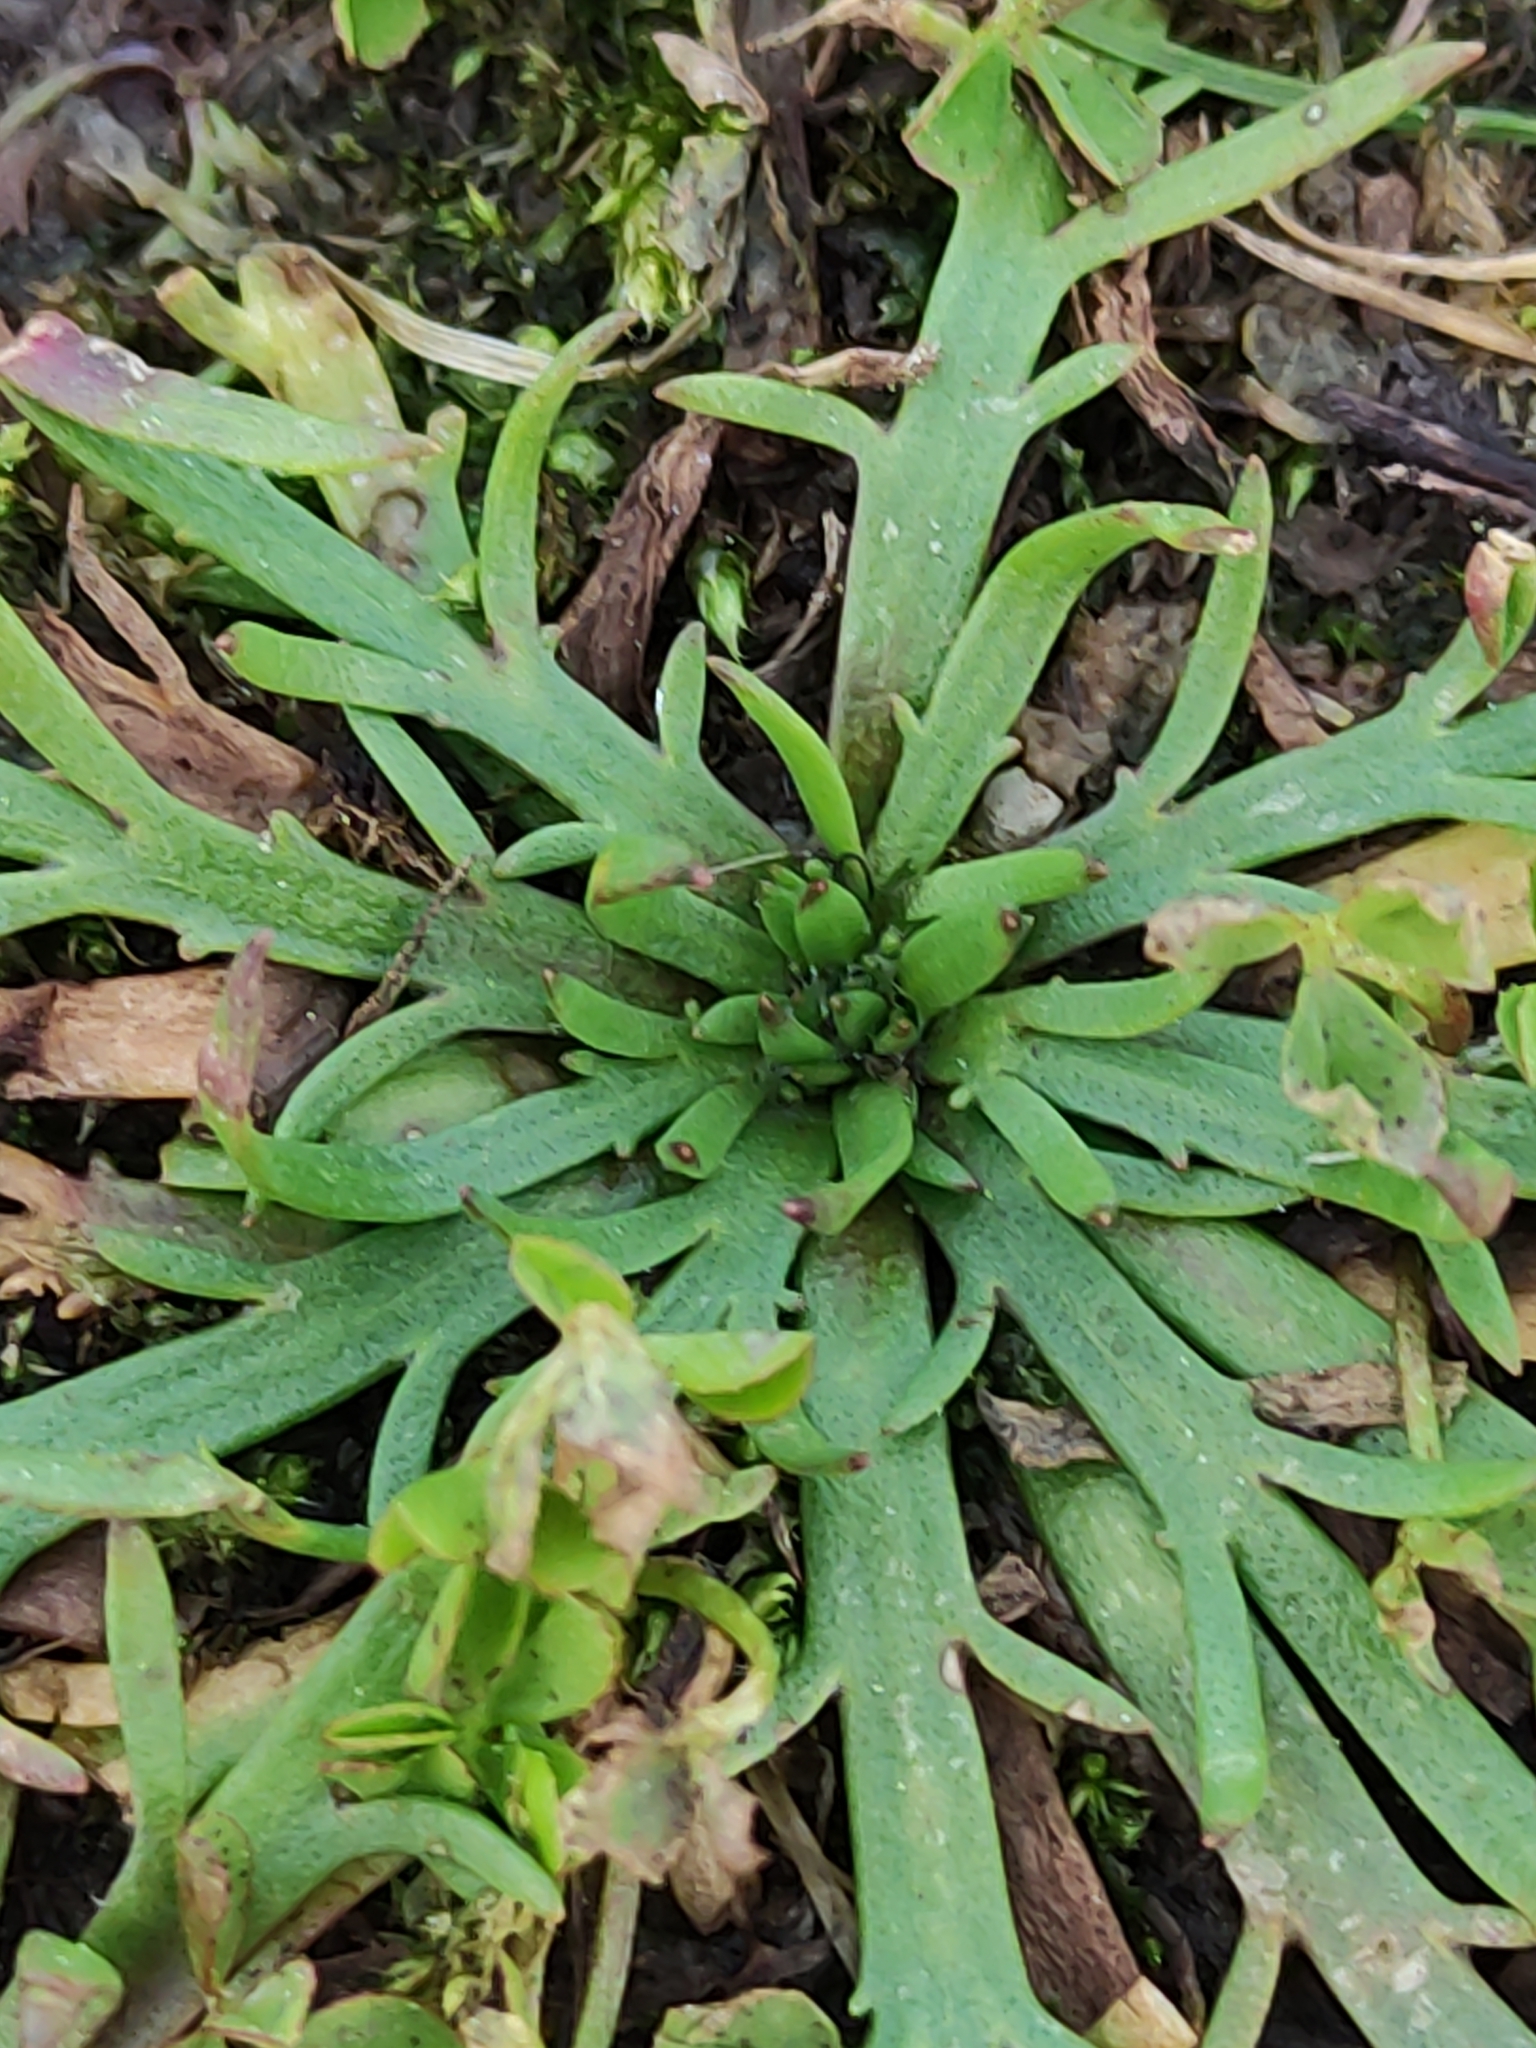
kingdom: Plantae
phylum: Tracheophyta
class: Magnoliopsida
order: Lamiales
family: Plantaginaceae
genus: Plantago
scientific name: Plantago coronopus
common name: Buck's-horn plantain
